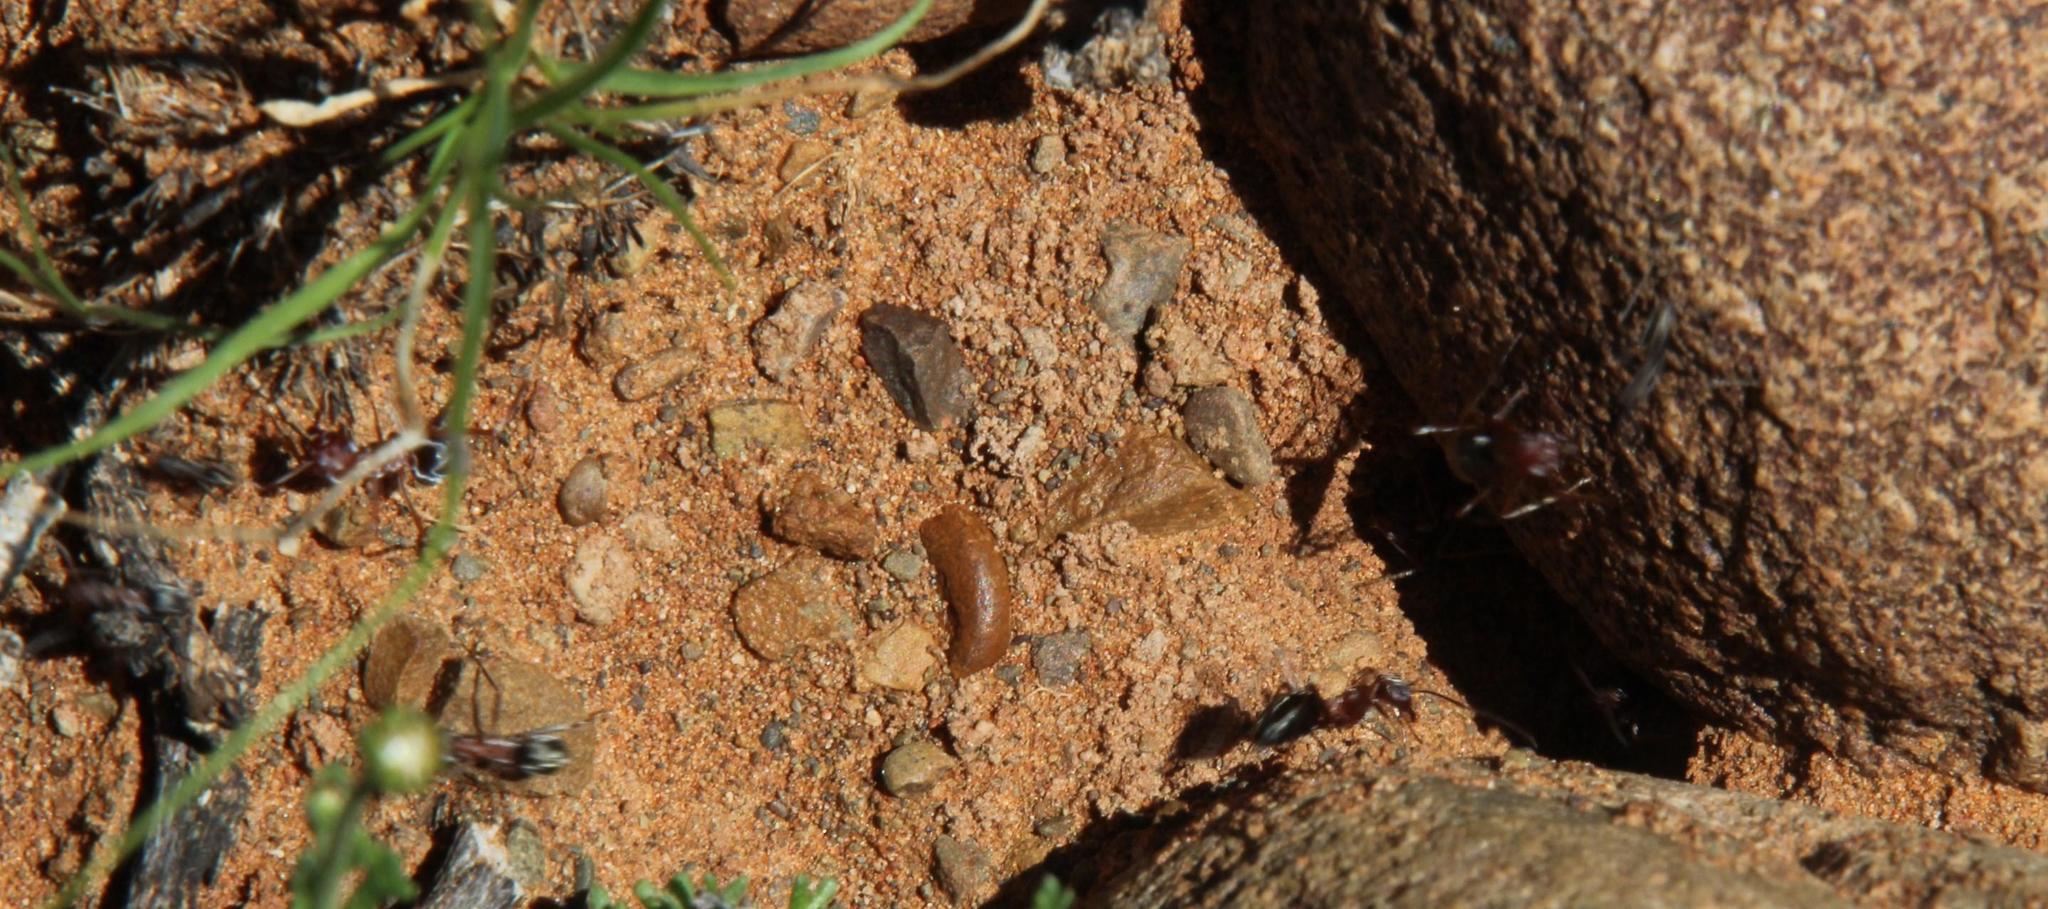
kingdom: Animalia
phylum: Arthropoda
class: Insecta
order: Hymenoptera
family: Formicidae
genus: Anoplolepis
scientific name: Anoplolepis custodiens
